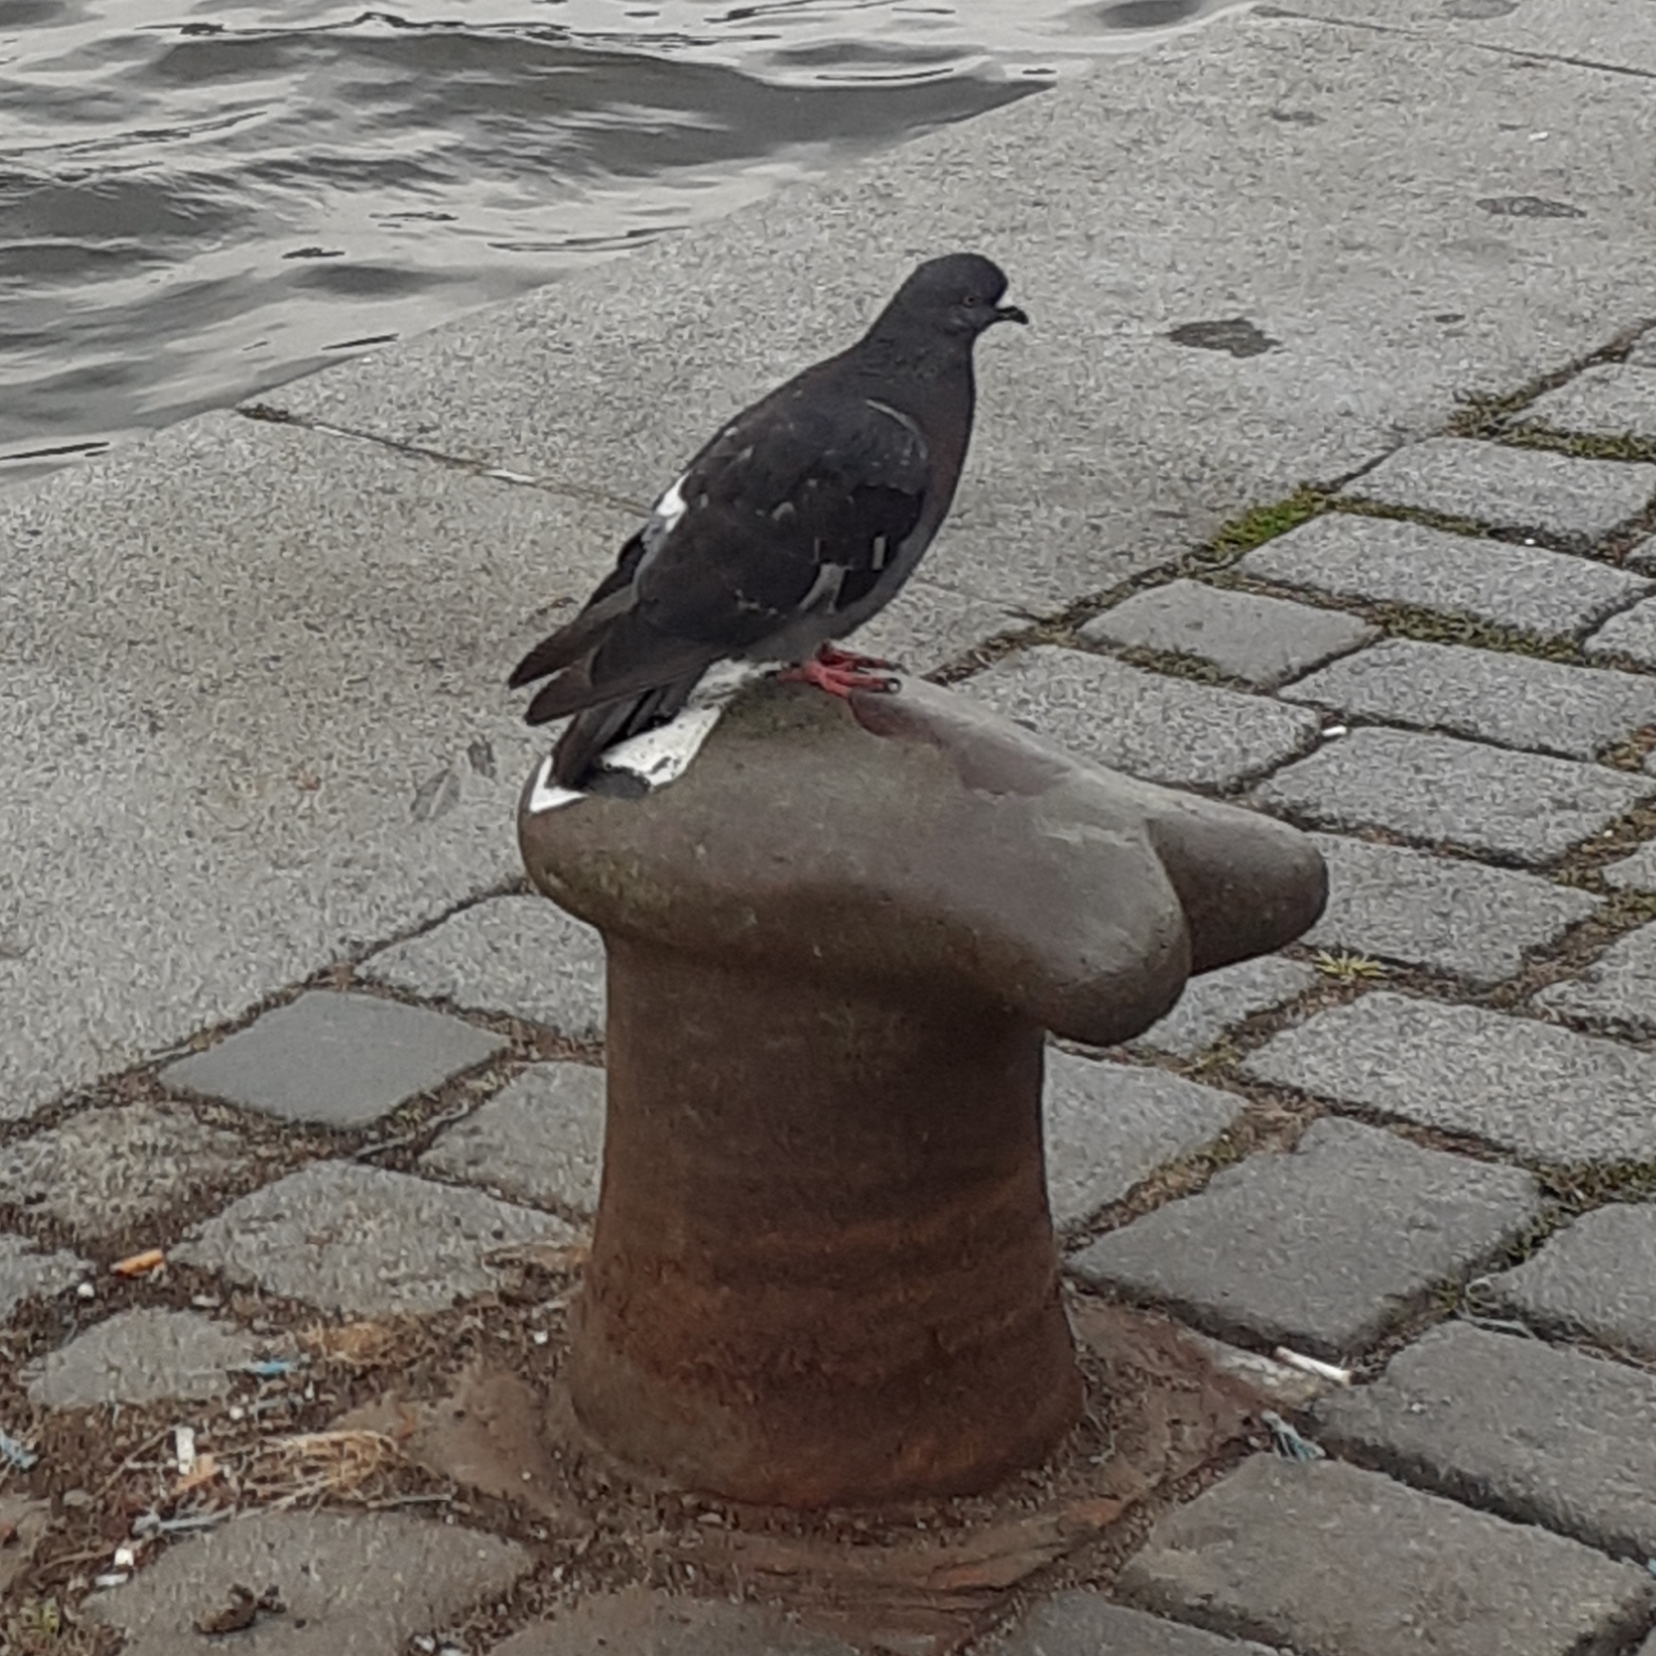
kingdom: Animalia
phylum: Chordata
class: Aves
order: Columbiformes
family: Columbidae
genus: Columba
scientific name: Columba livia
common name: Rock pigeon
